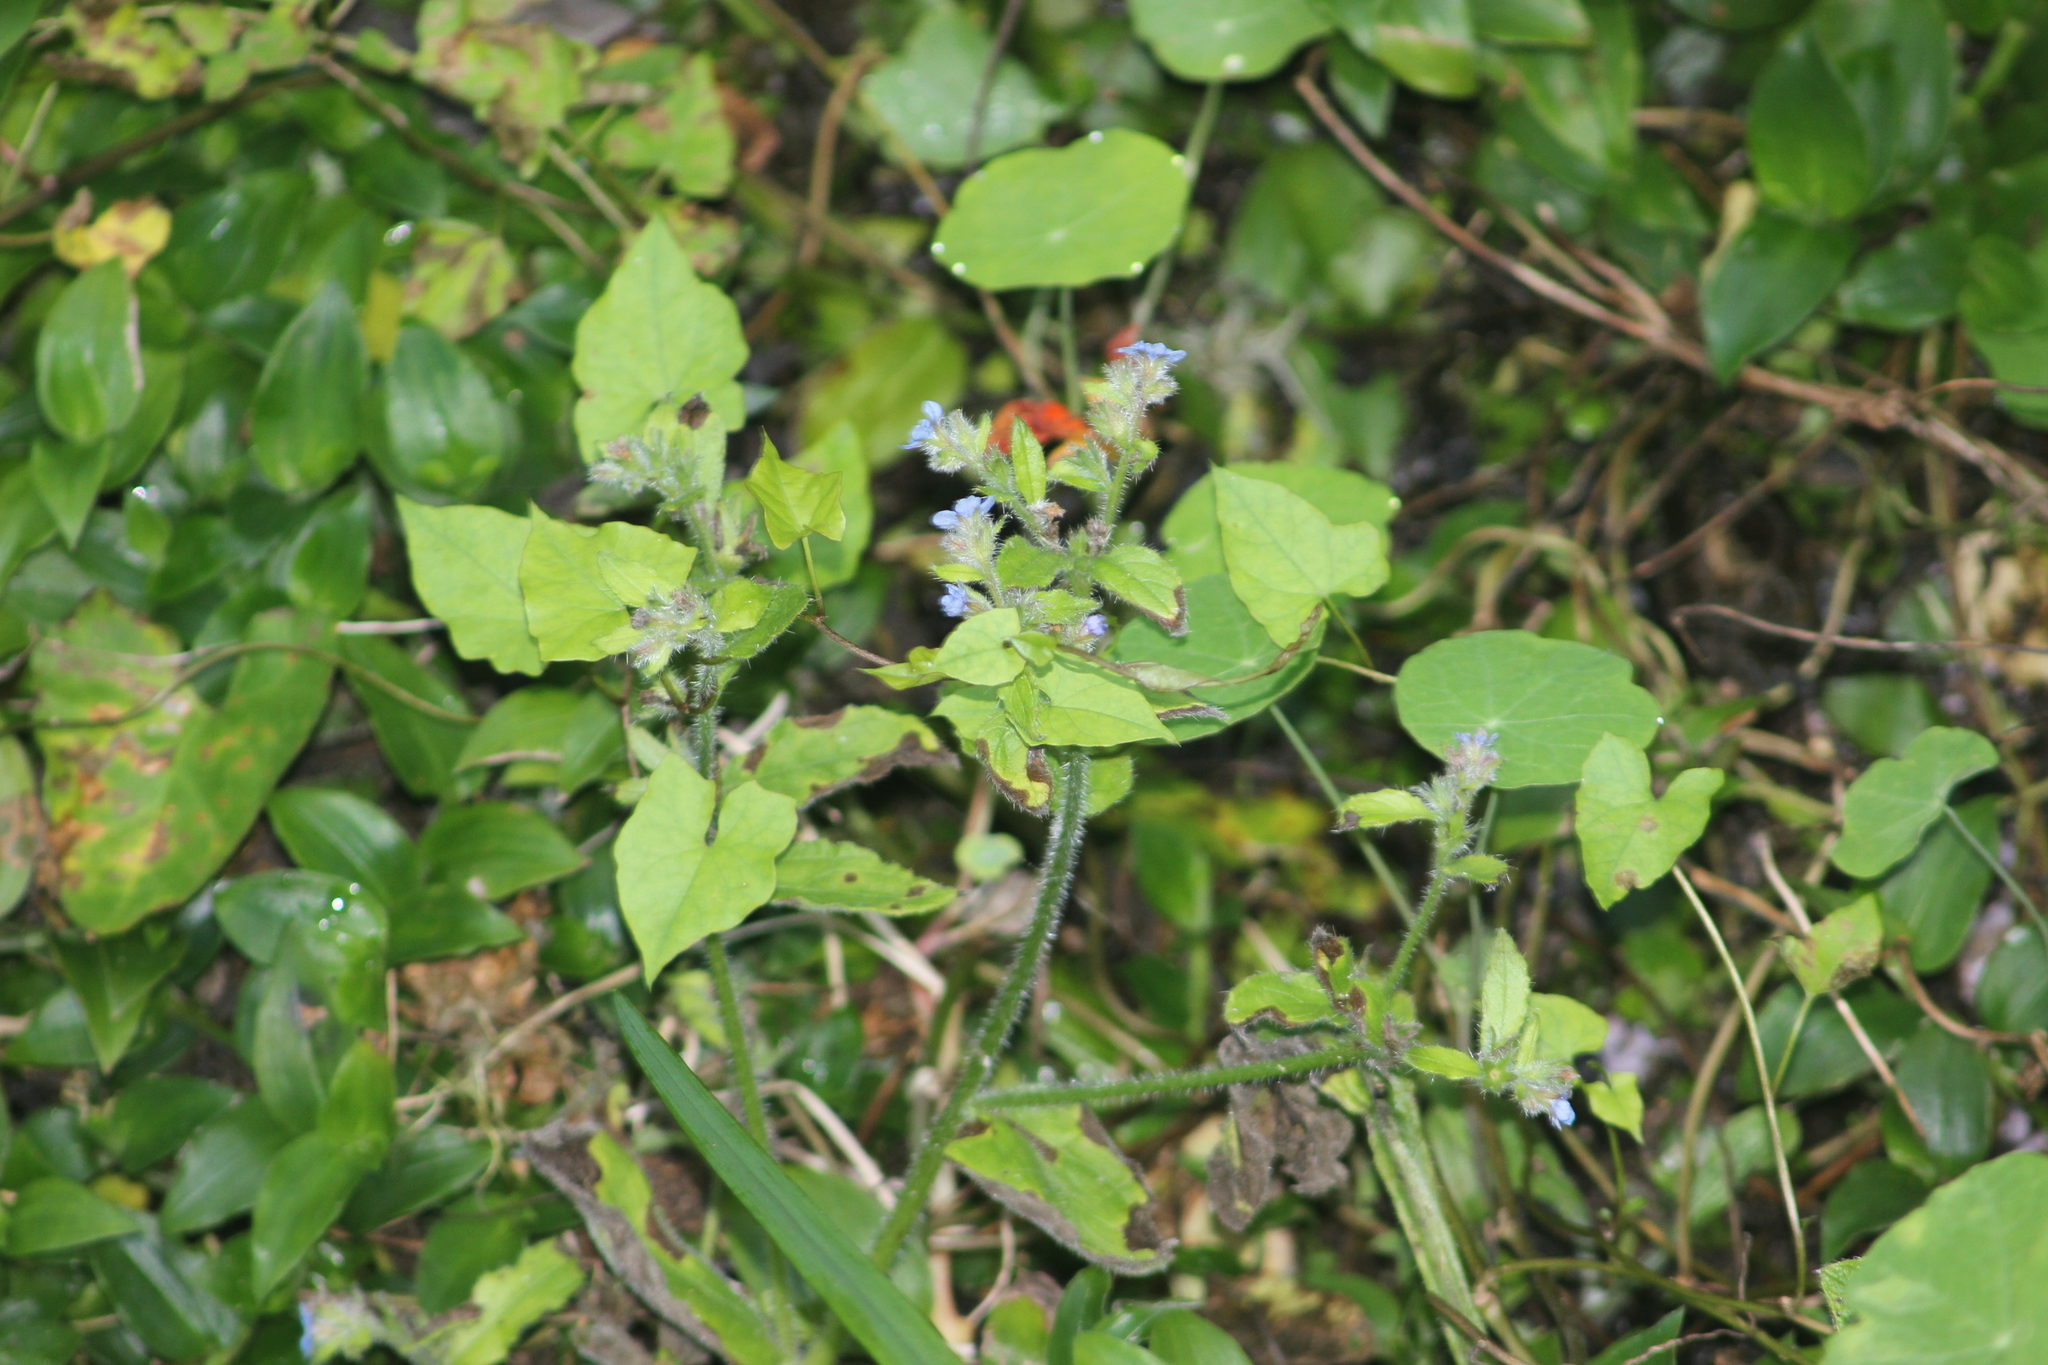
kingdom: Plantae
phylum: Tracheophyta
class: Magnoliopsida
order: Boraginales
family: Boraginaceae
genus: Pentaglottis
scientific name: Pentaglottis sempervirens
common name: Green alkanet
